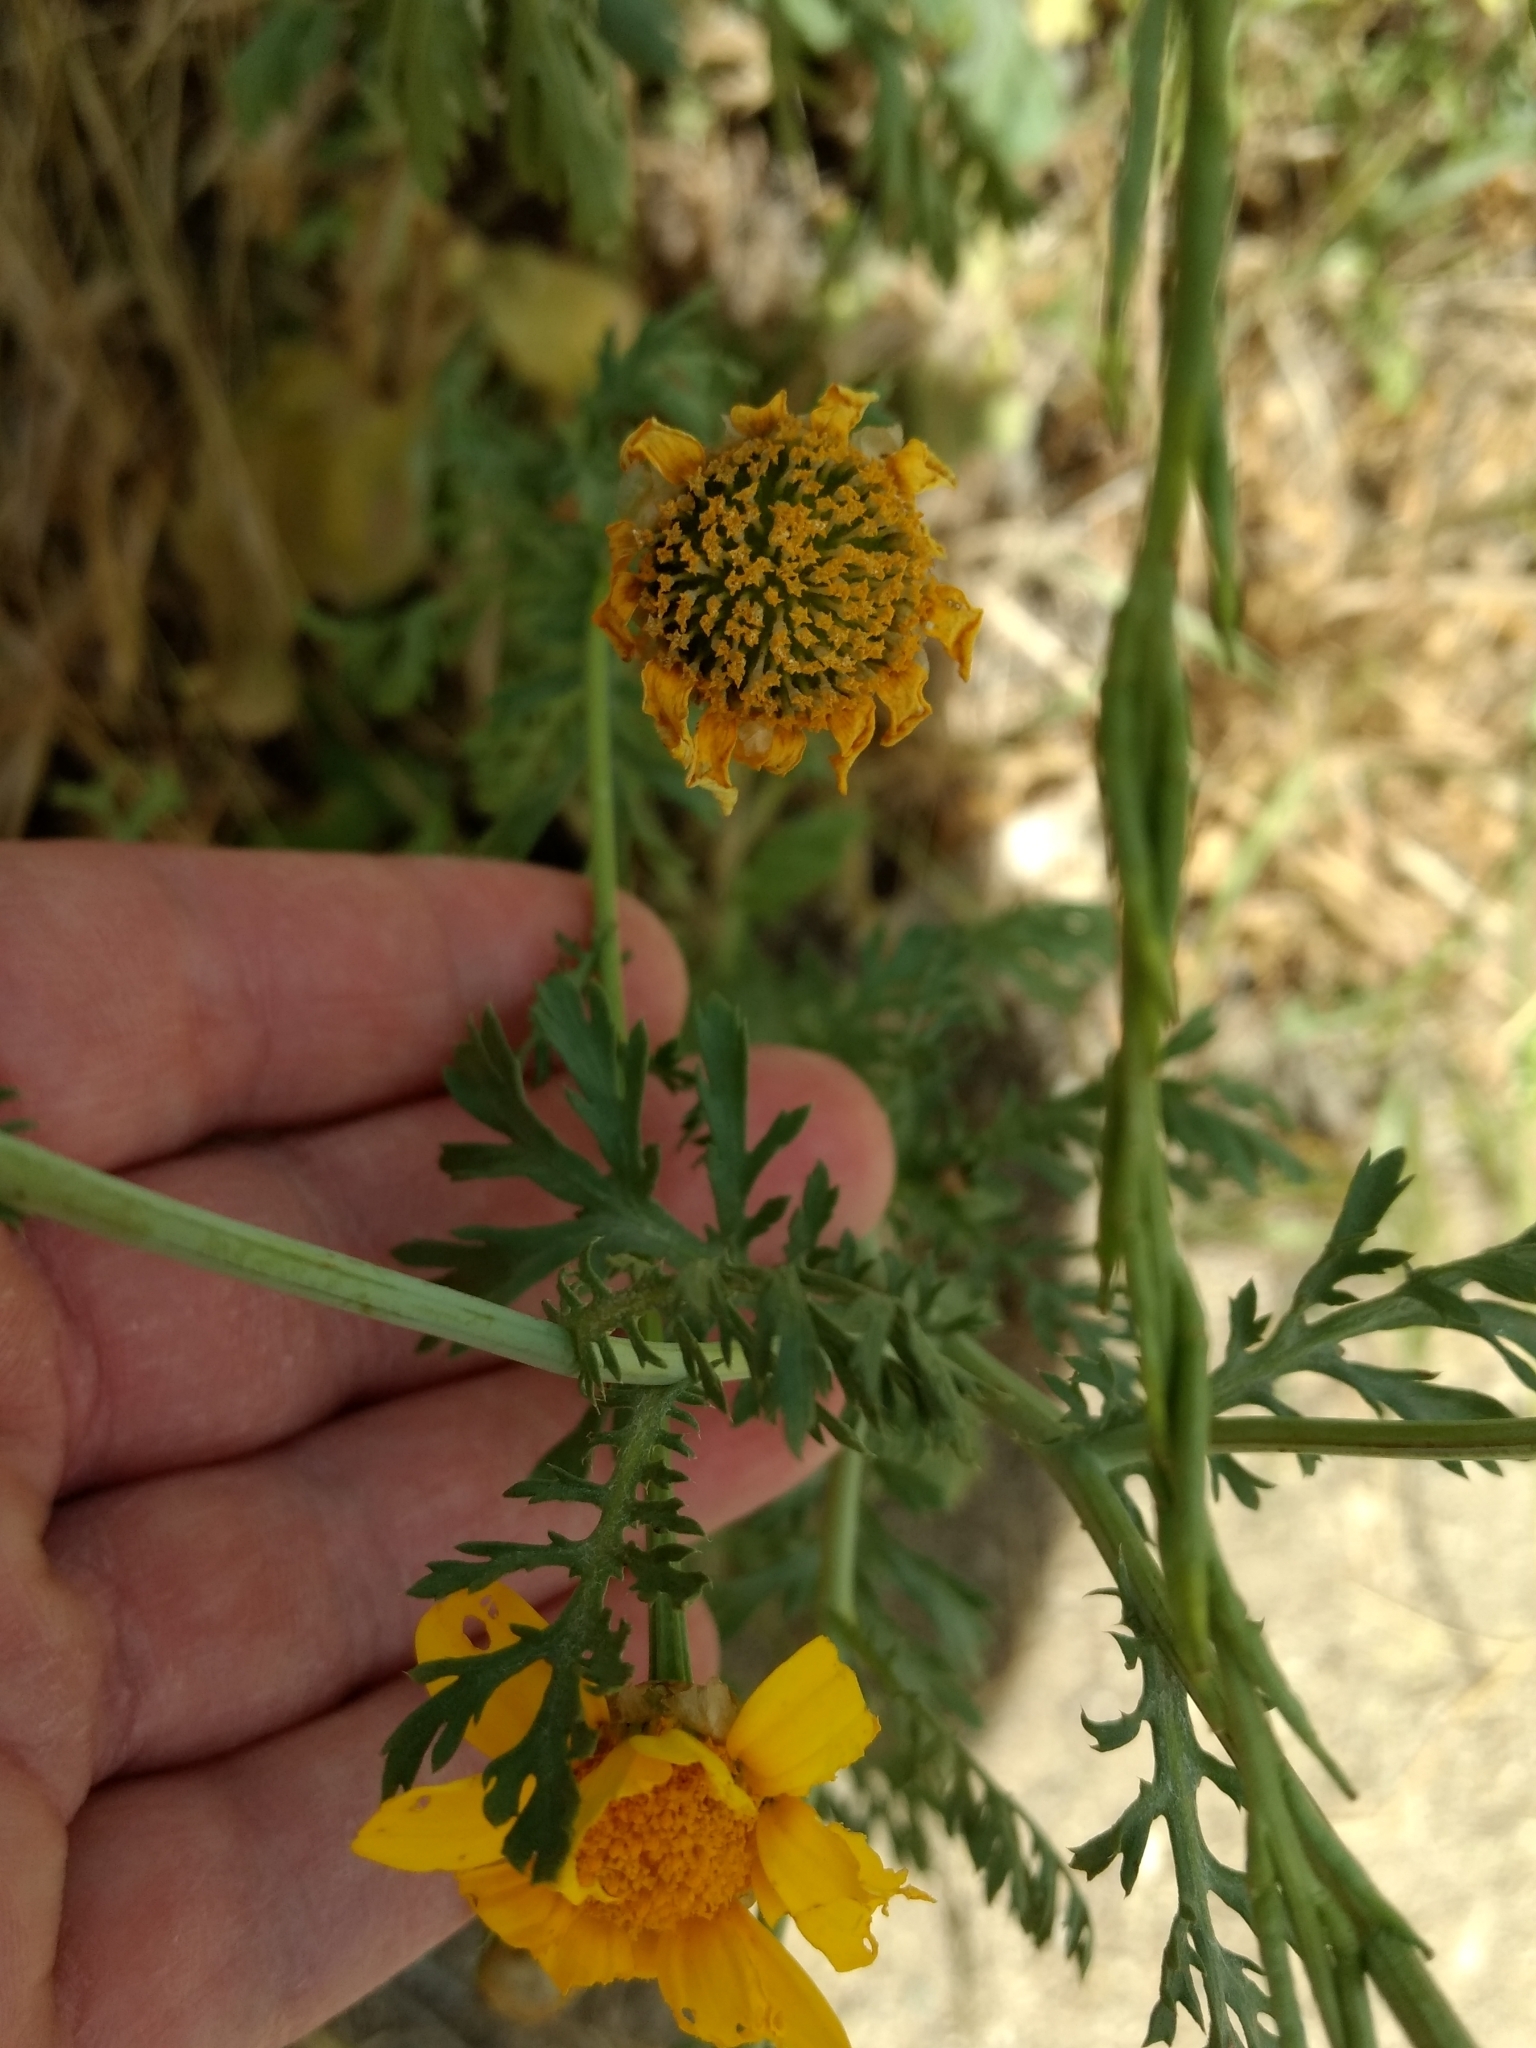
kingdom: Plantae
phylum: Tracheophyta
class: Magnoliopsida
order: Asterales
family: Asteraceae
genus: Glebionis
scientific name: Glebionis coronaria
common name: Crowndaisy
